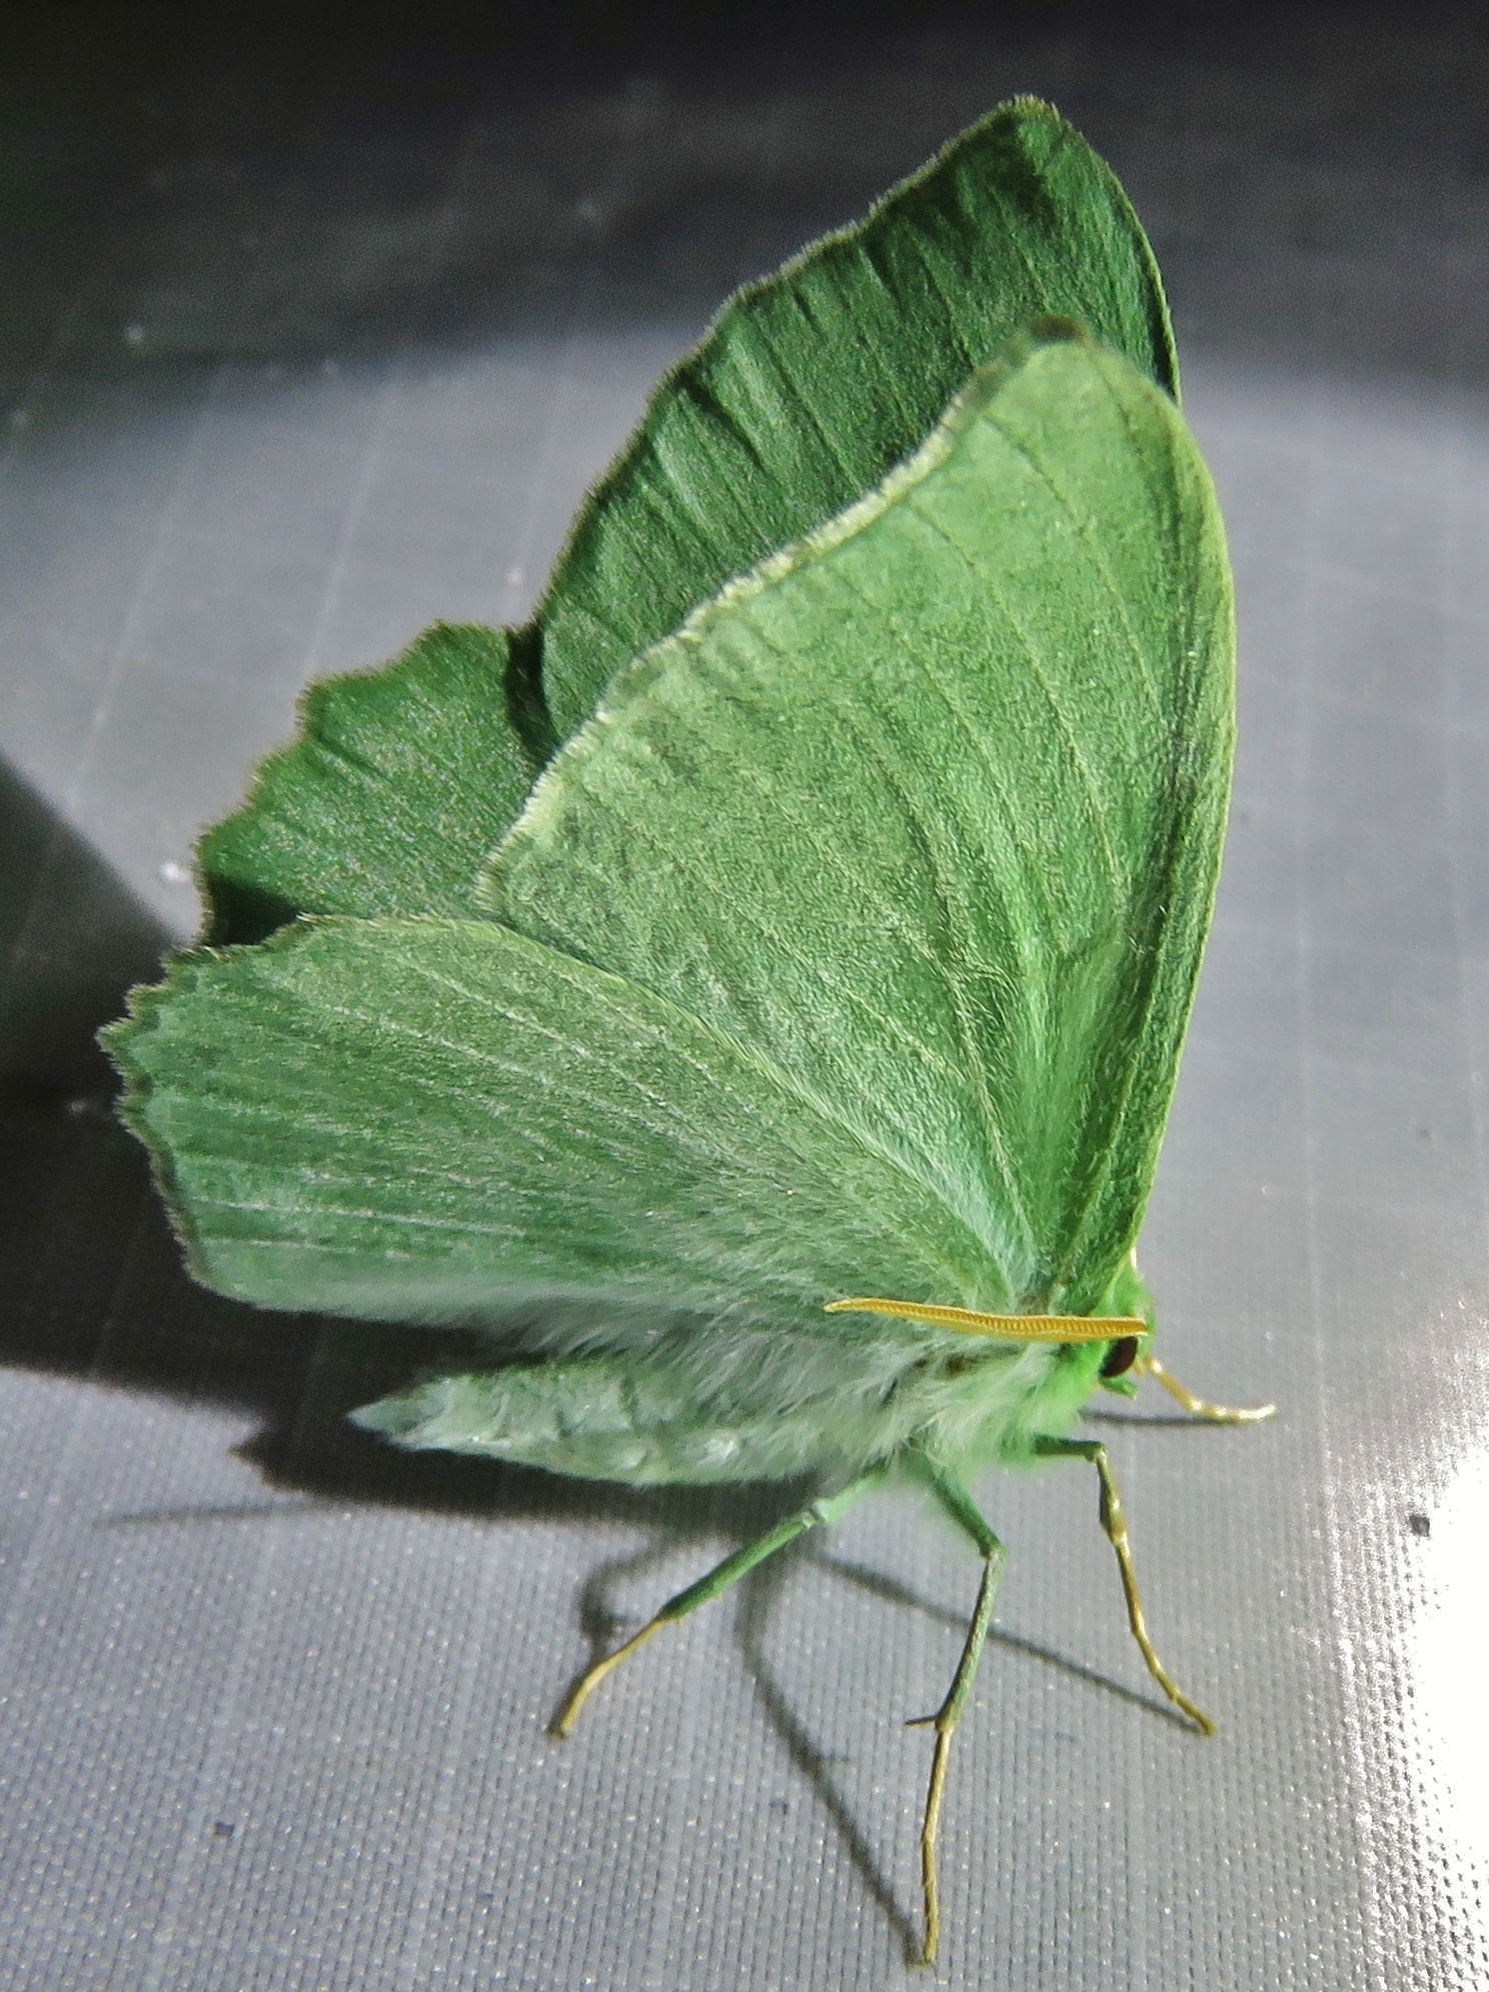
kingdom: Animalia
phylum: Arthropoda
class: Insecta
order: Lepidoptera
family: Geometridae
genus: Geometra
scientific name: Geometra papilionaria
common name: Large emerald
